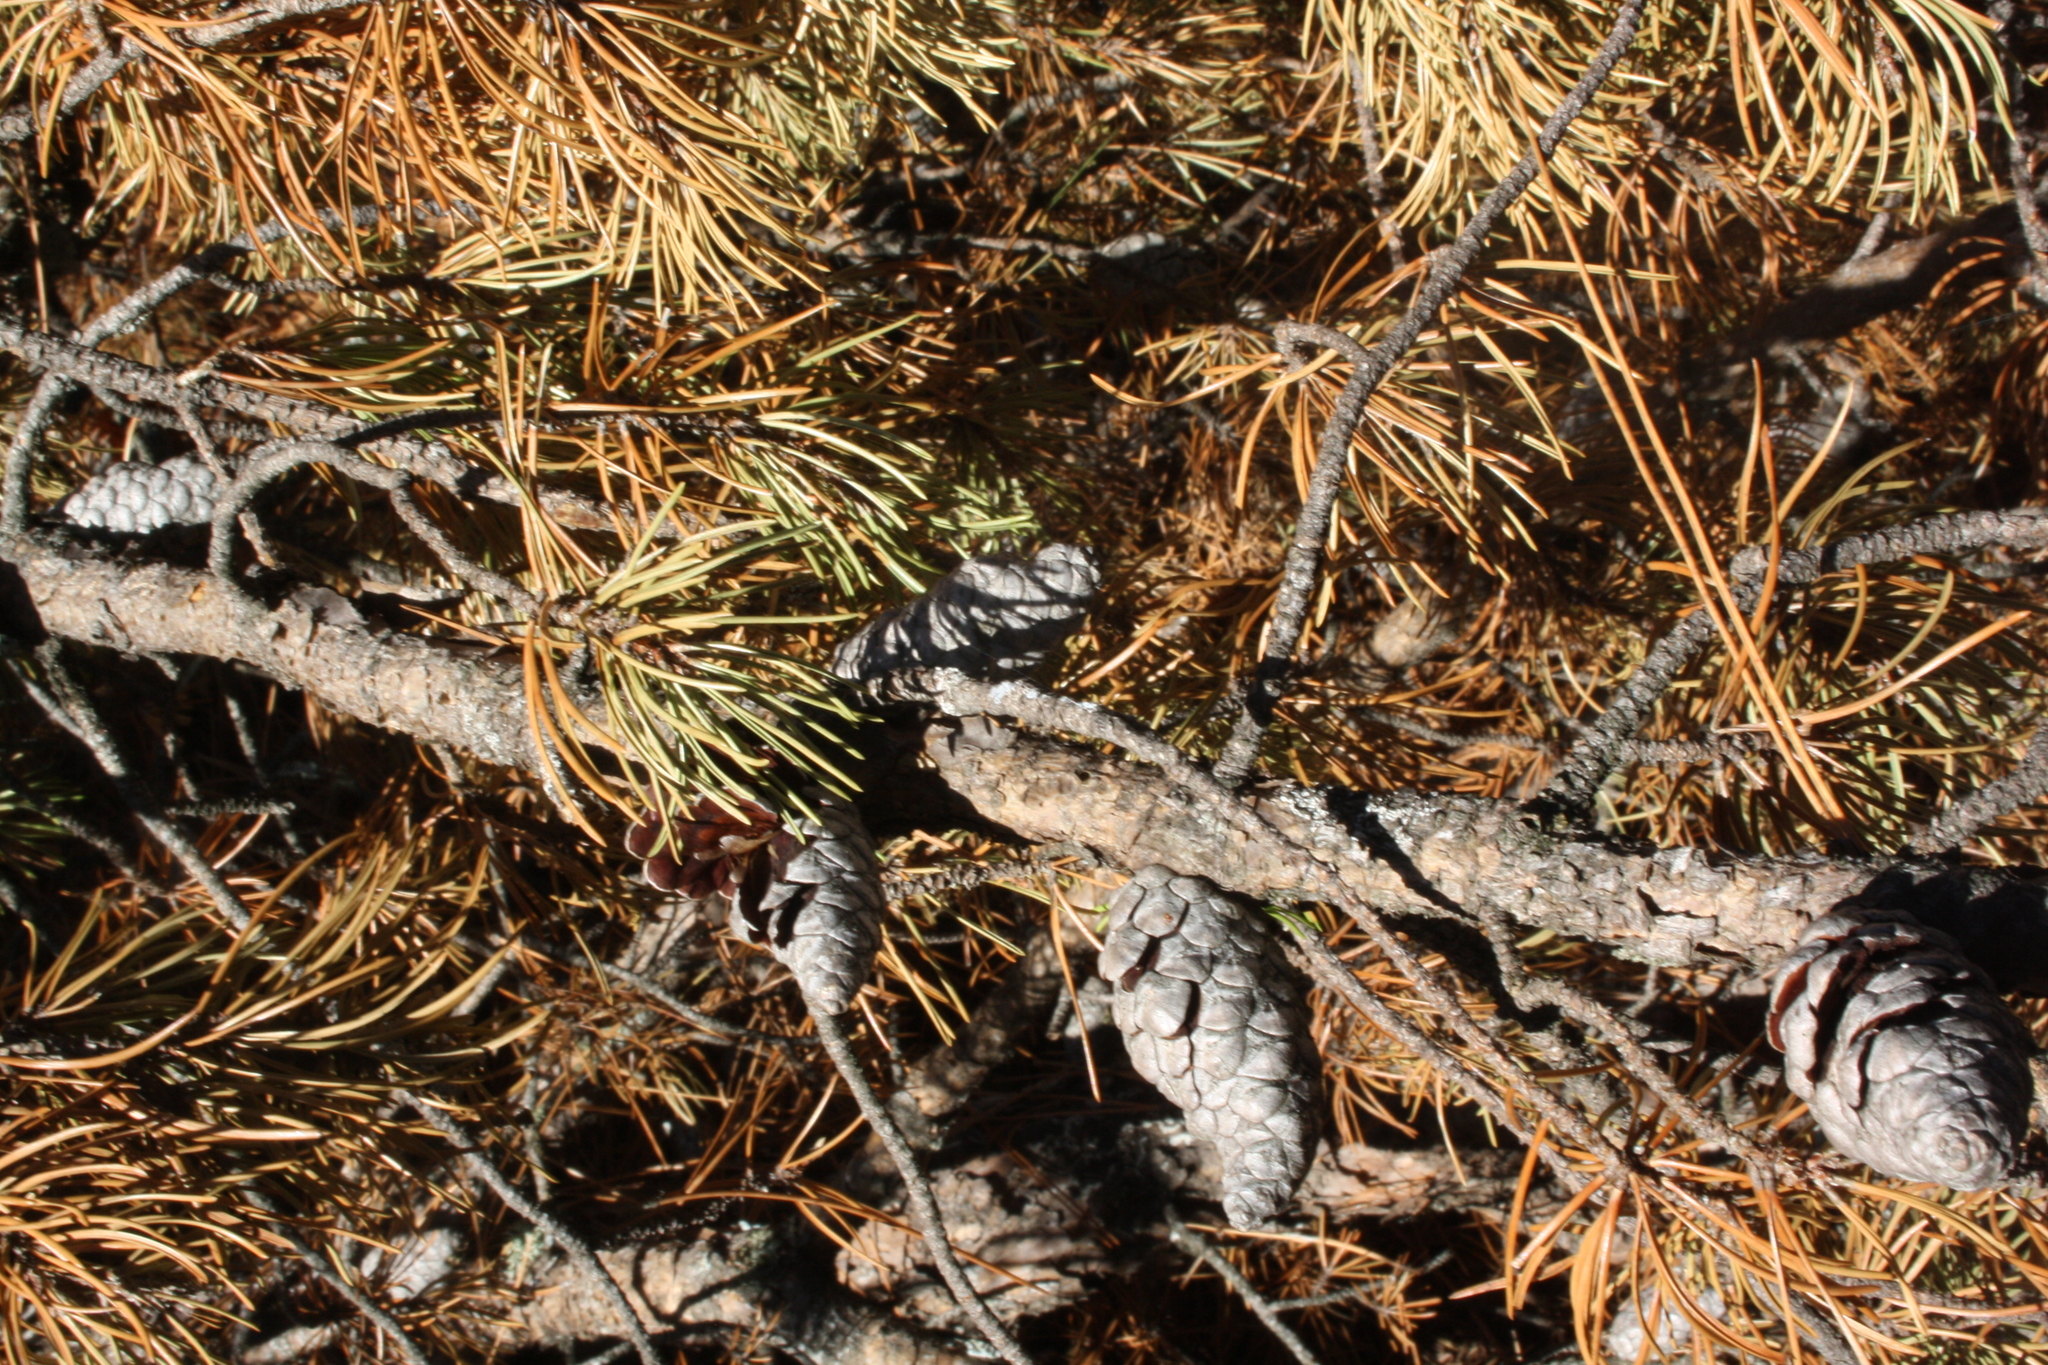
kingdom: Plantae
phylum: Tracheophyta
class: Pinopsida
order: Pinales
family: Pinaceae
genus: Pinus
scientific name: Pinus banksiana
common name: Jack pine
